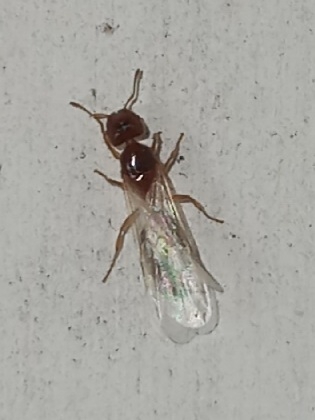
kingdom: Animalia
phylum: Arthropoda
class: Insecta
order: Hymenoptera
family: Formicidae
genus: Pheidole
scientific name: Pheidole bicarinata
